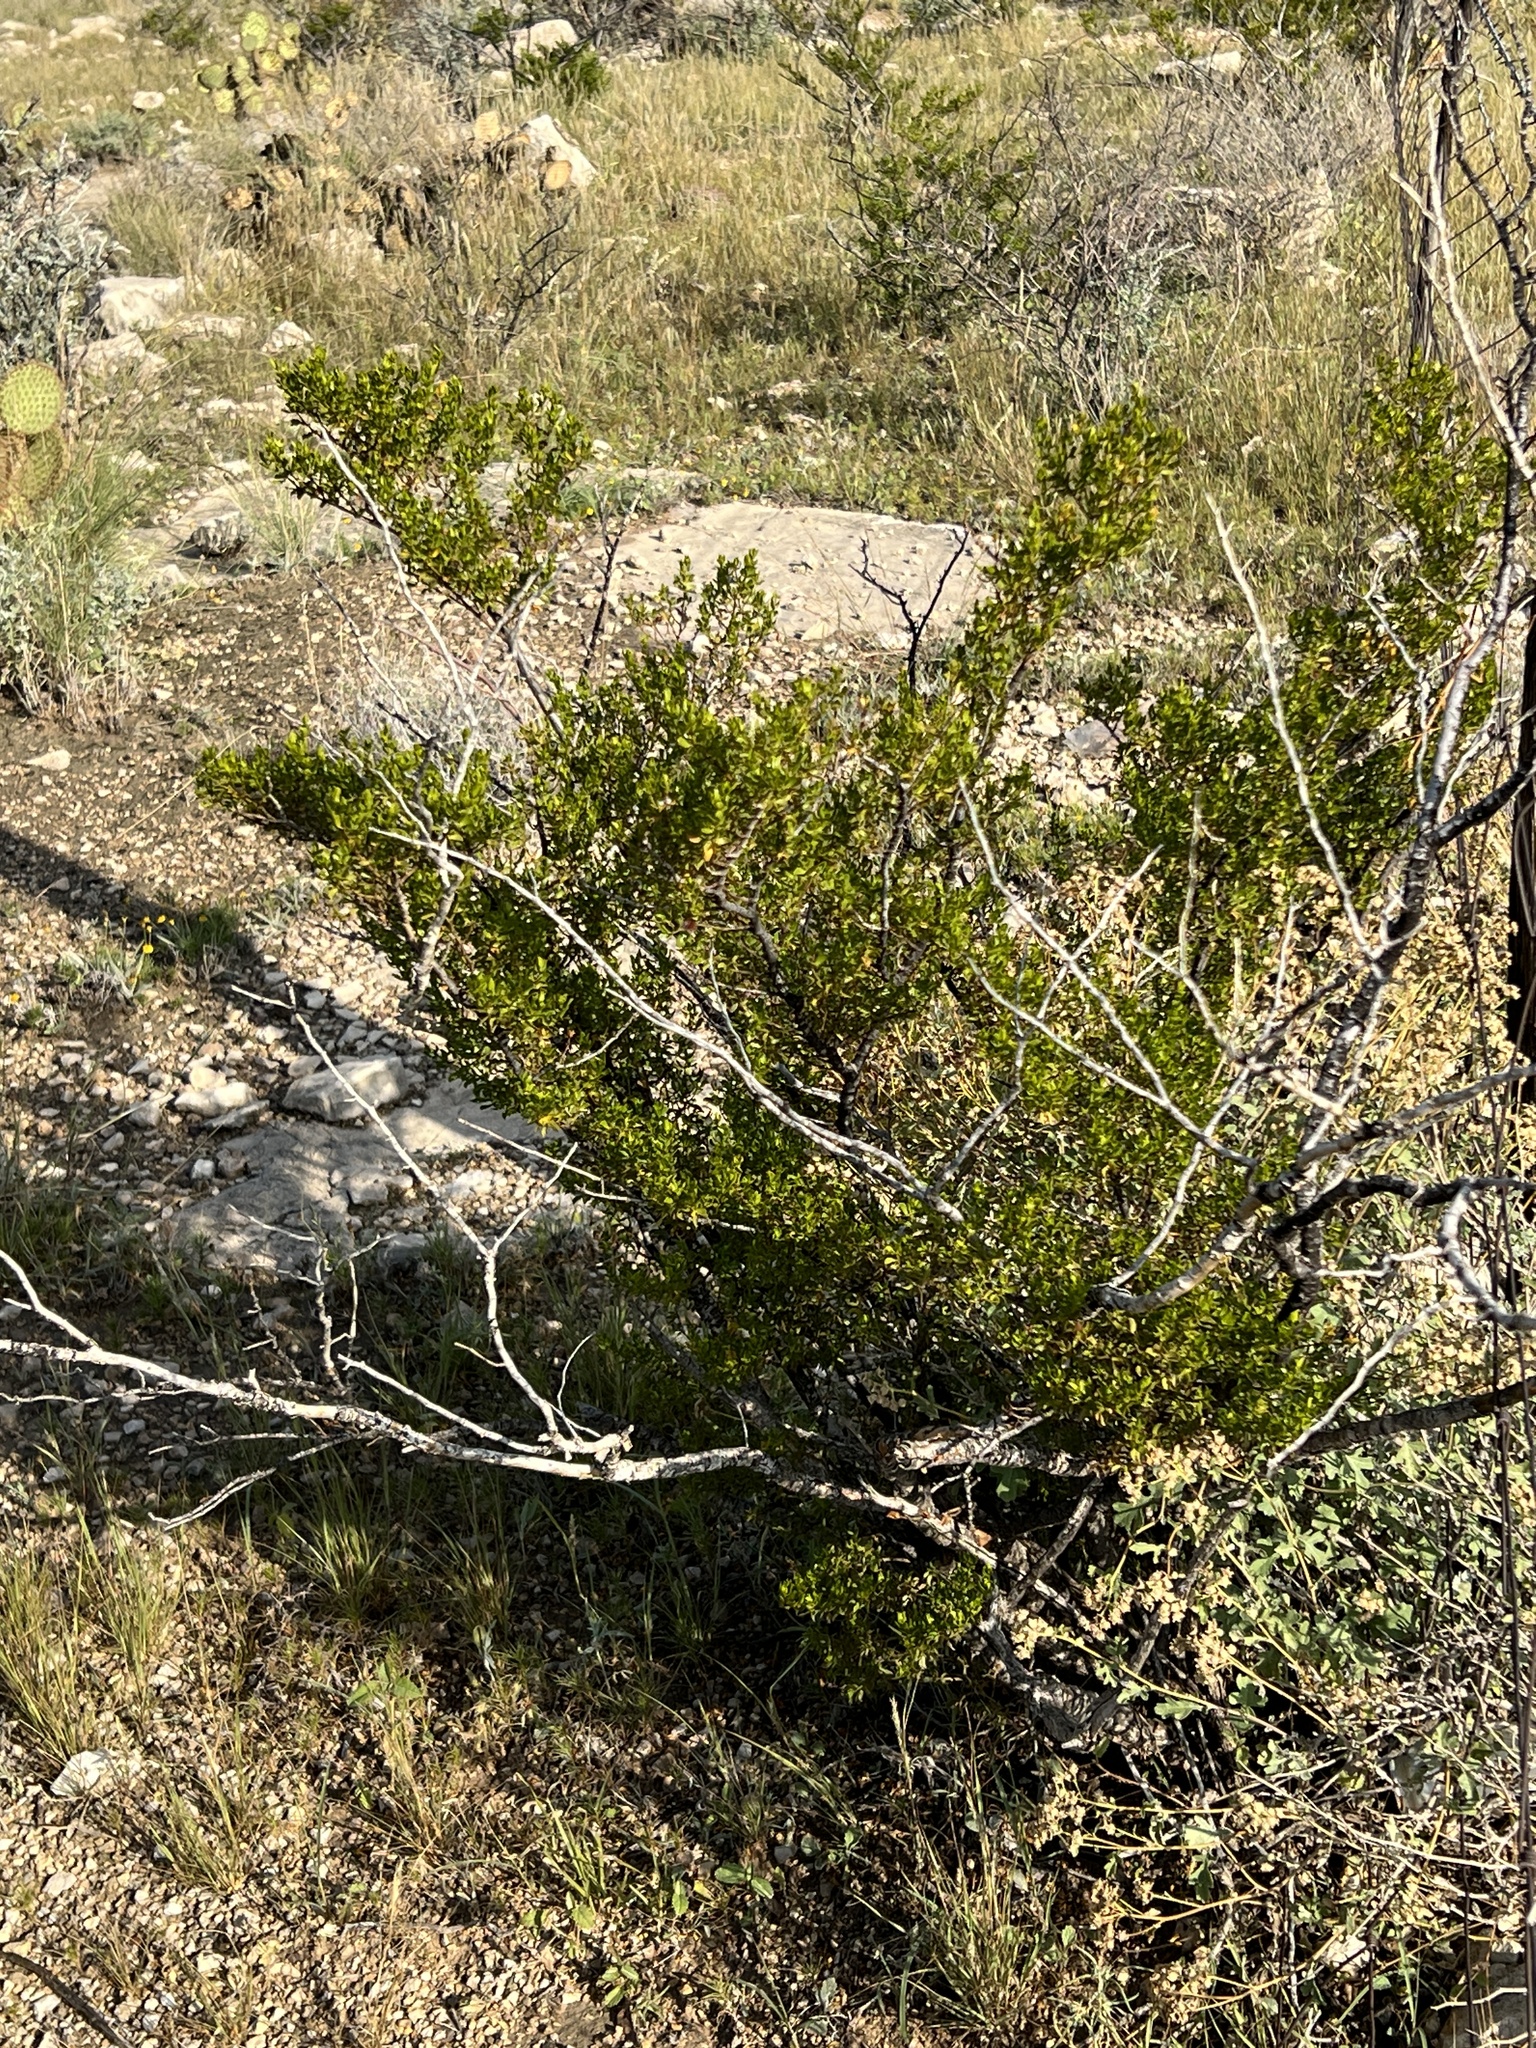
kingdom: Plantae
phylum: Tracheophyta
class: Magnoliopsida
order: Zygophyllales
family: Zygophyllaceae
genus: Larrea
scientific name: Larrea tridentata
